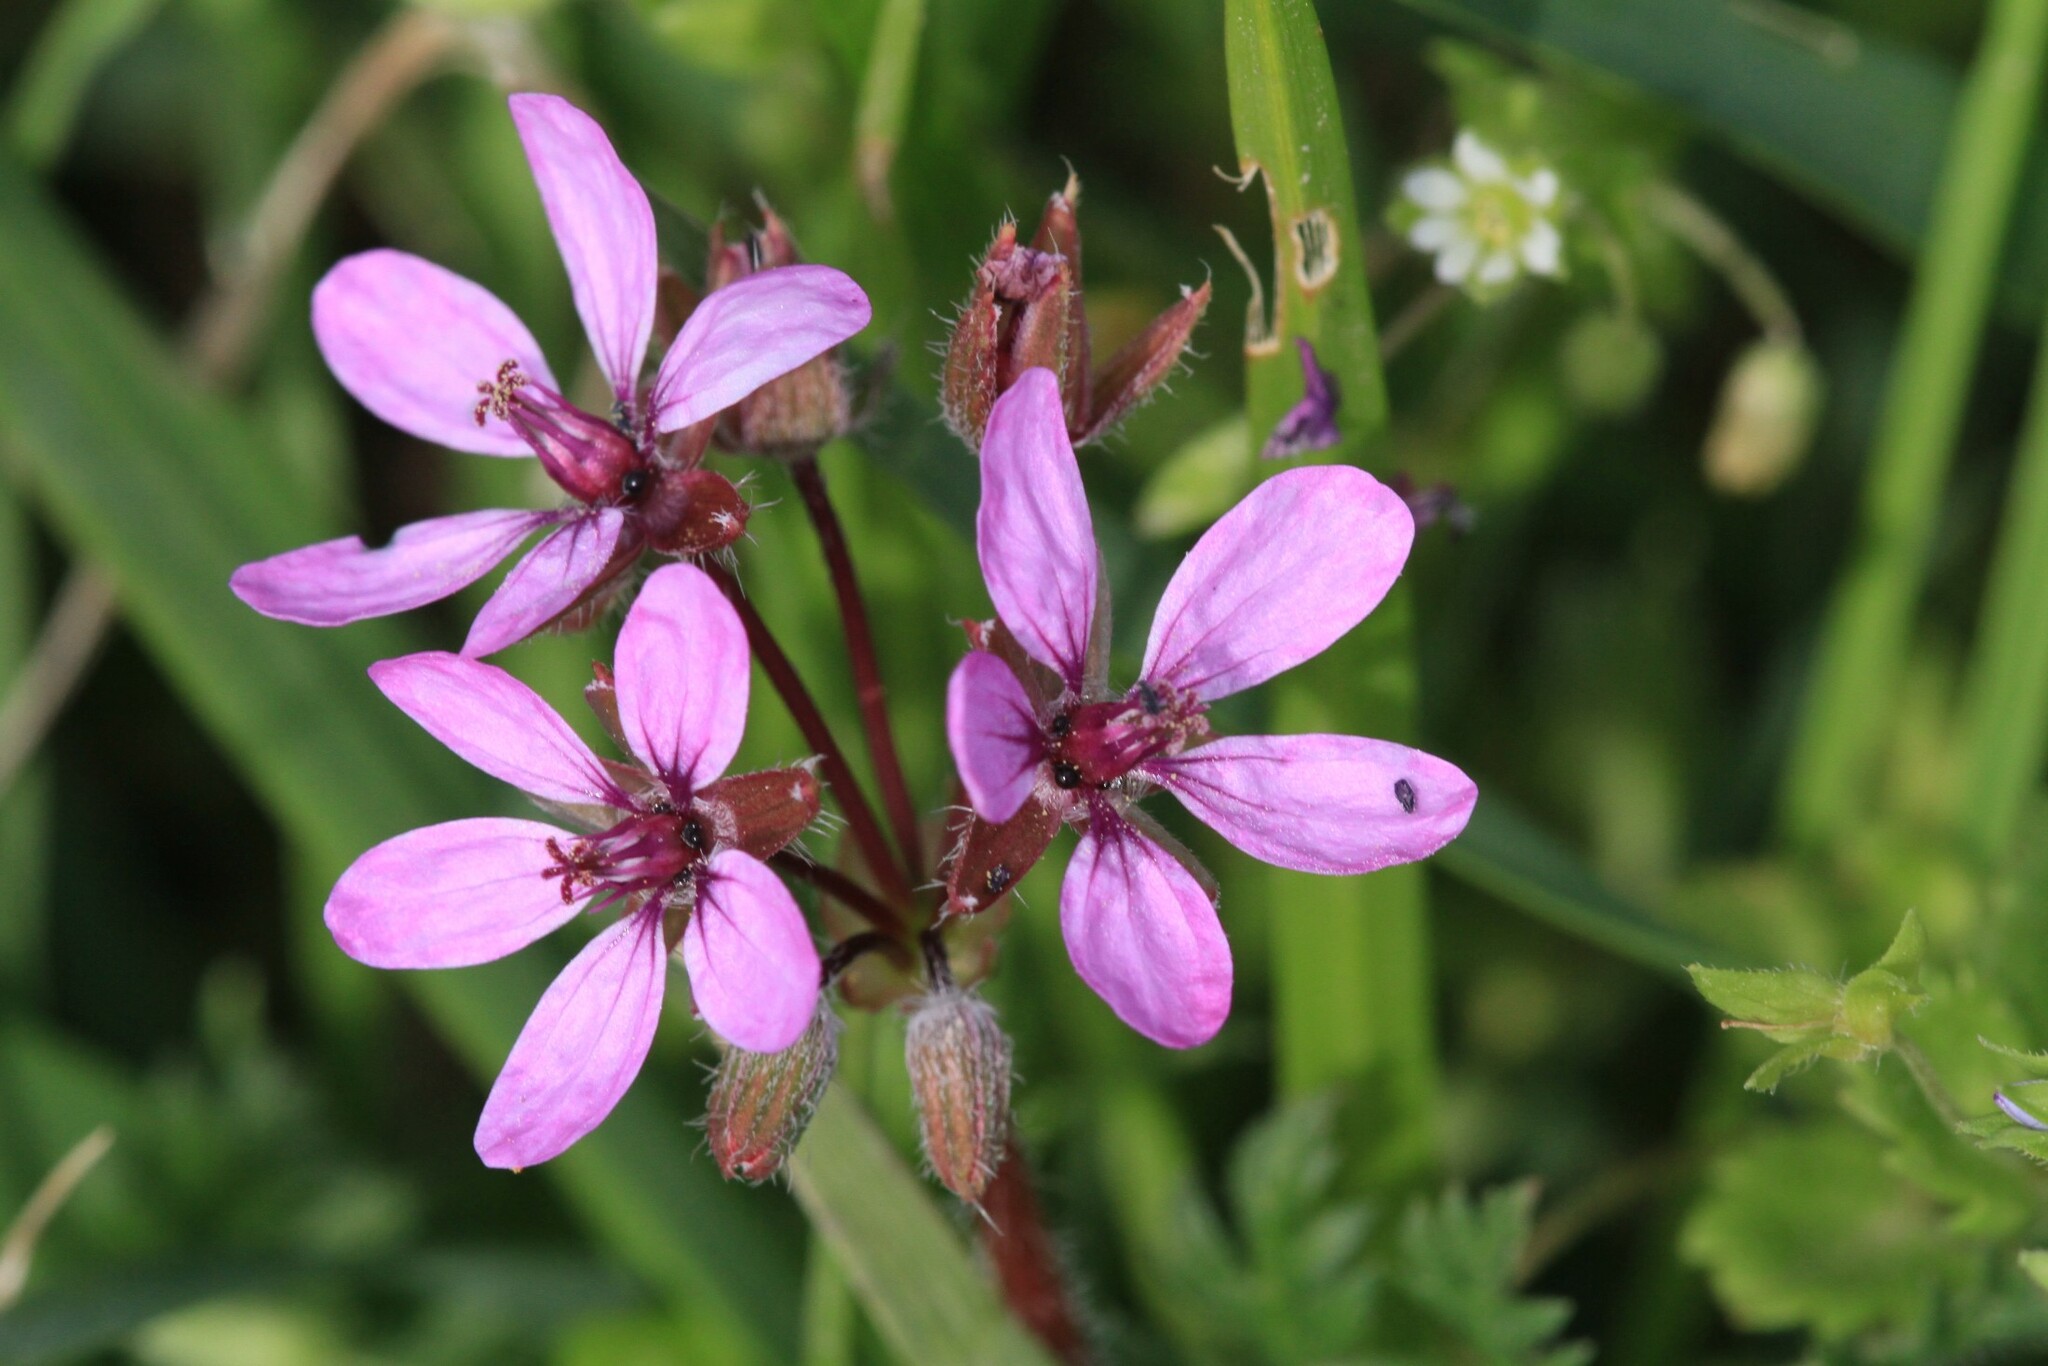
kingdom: Plantae
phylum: Tracheophyta
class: Magnoliopsida
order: Geraniales
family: Geraniaceae
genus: Erodium
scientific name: Erodium cicutarium
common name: Common stork's-bill
